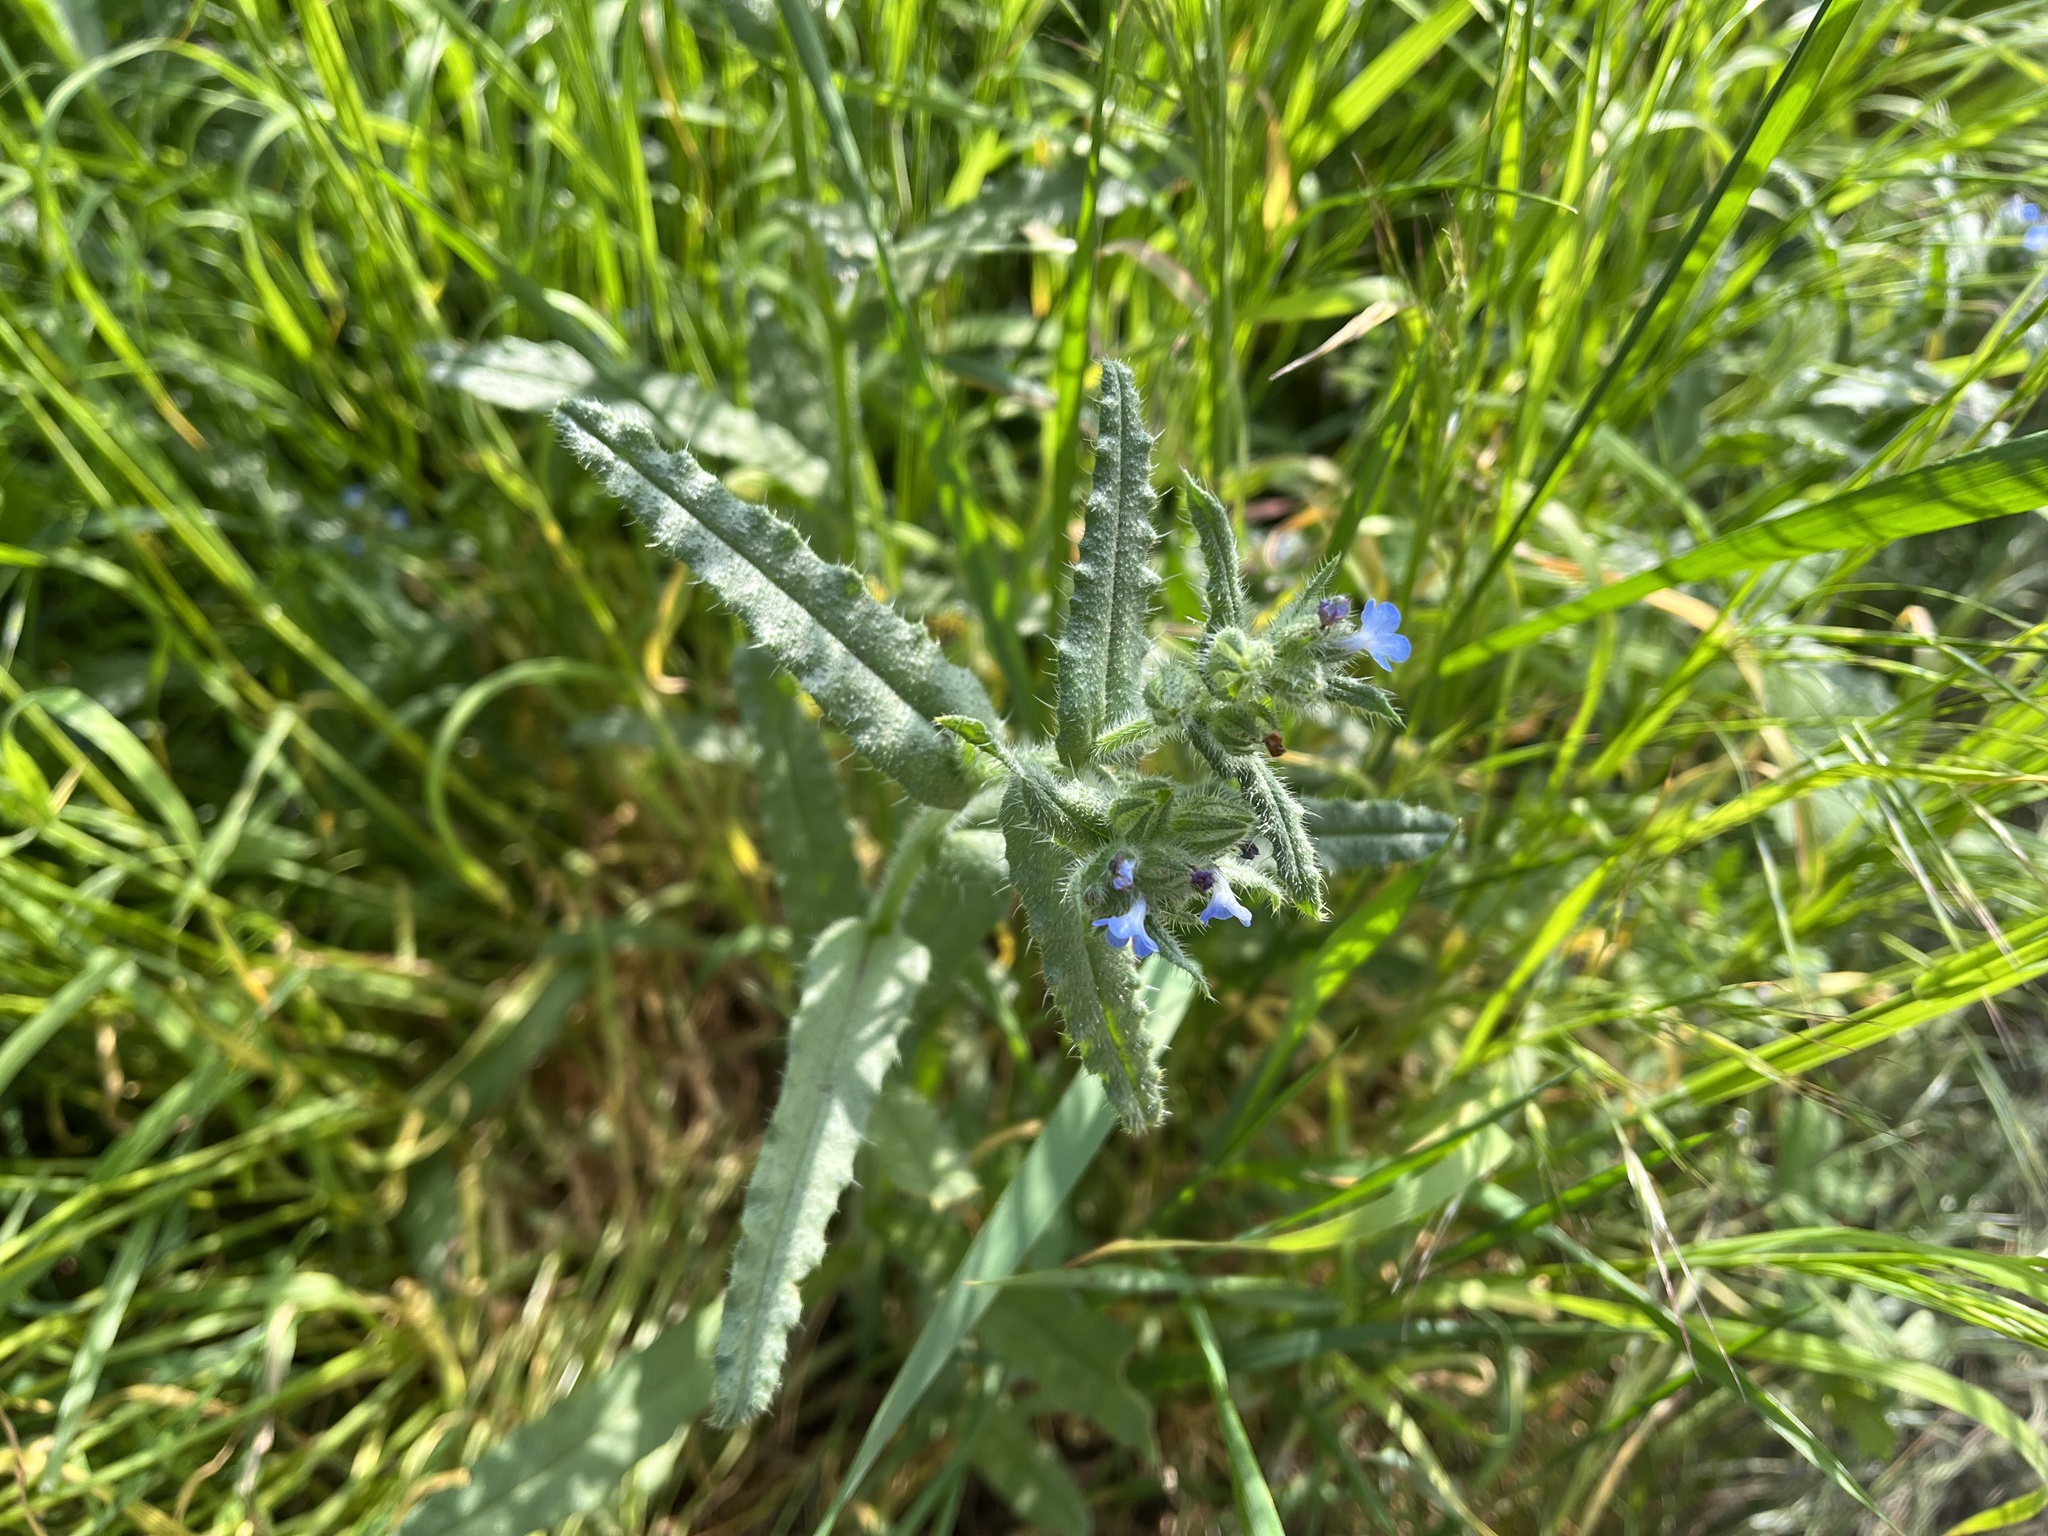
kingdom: Plantae
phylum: Tracheophyta
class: Magnoliopsida
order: Boraginales
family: Boraginaceae
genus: Lycopsis
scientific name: Lycopsis arvensis
